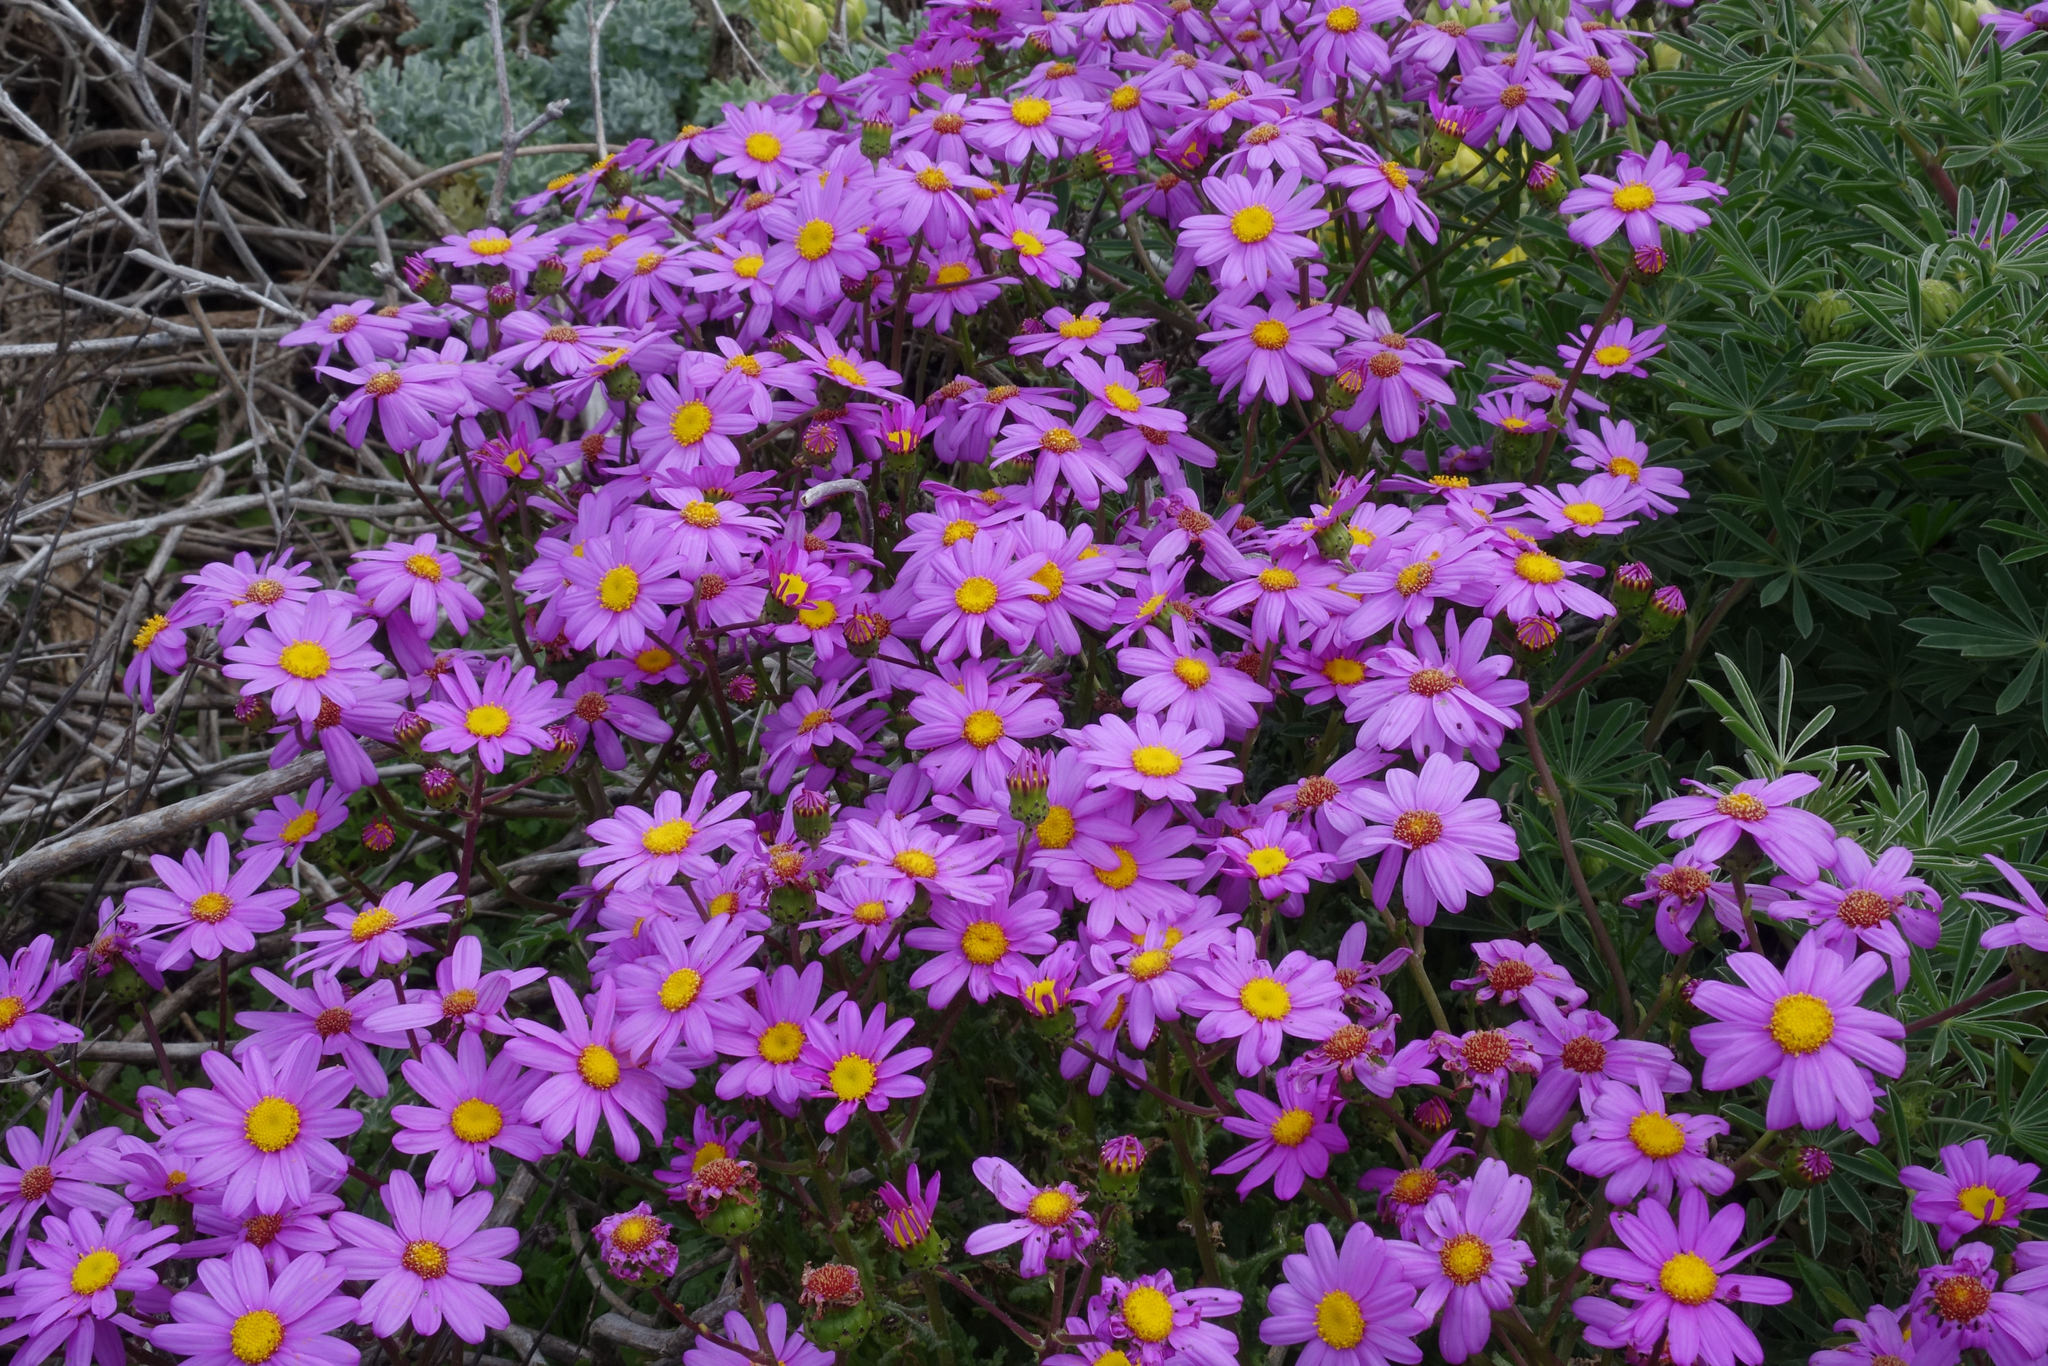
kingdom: Plantae
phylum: Tracheophyta
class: Magnoliopsida
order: Asterales
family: Asteraceae
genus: Senecio
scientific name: Senecio elegans
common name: Purple groundsel
